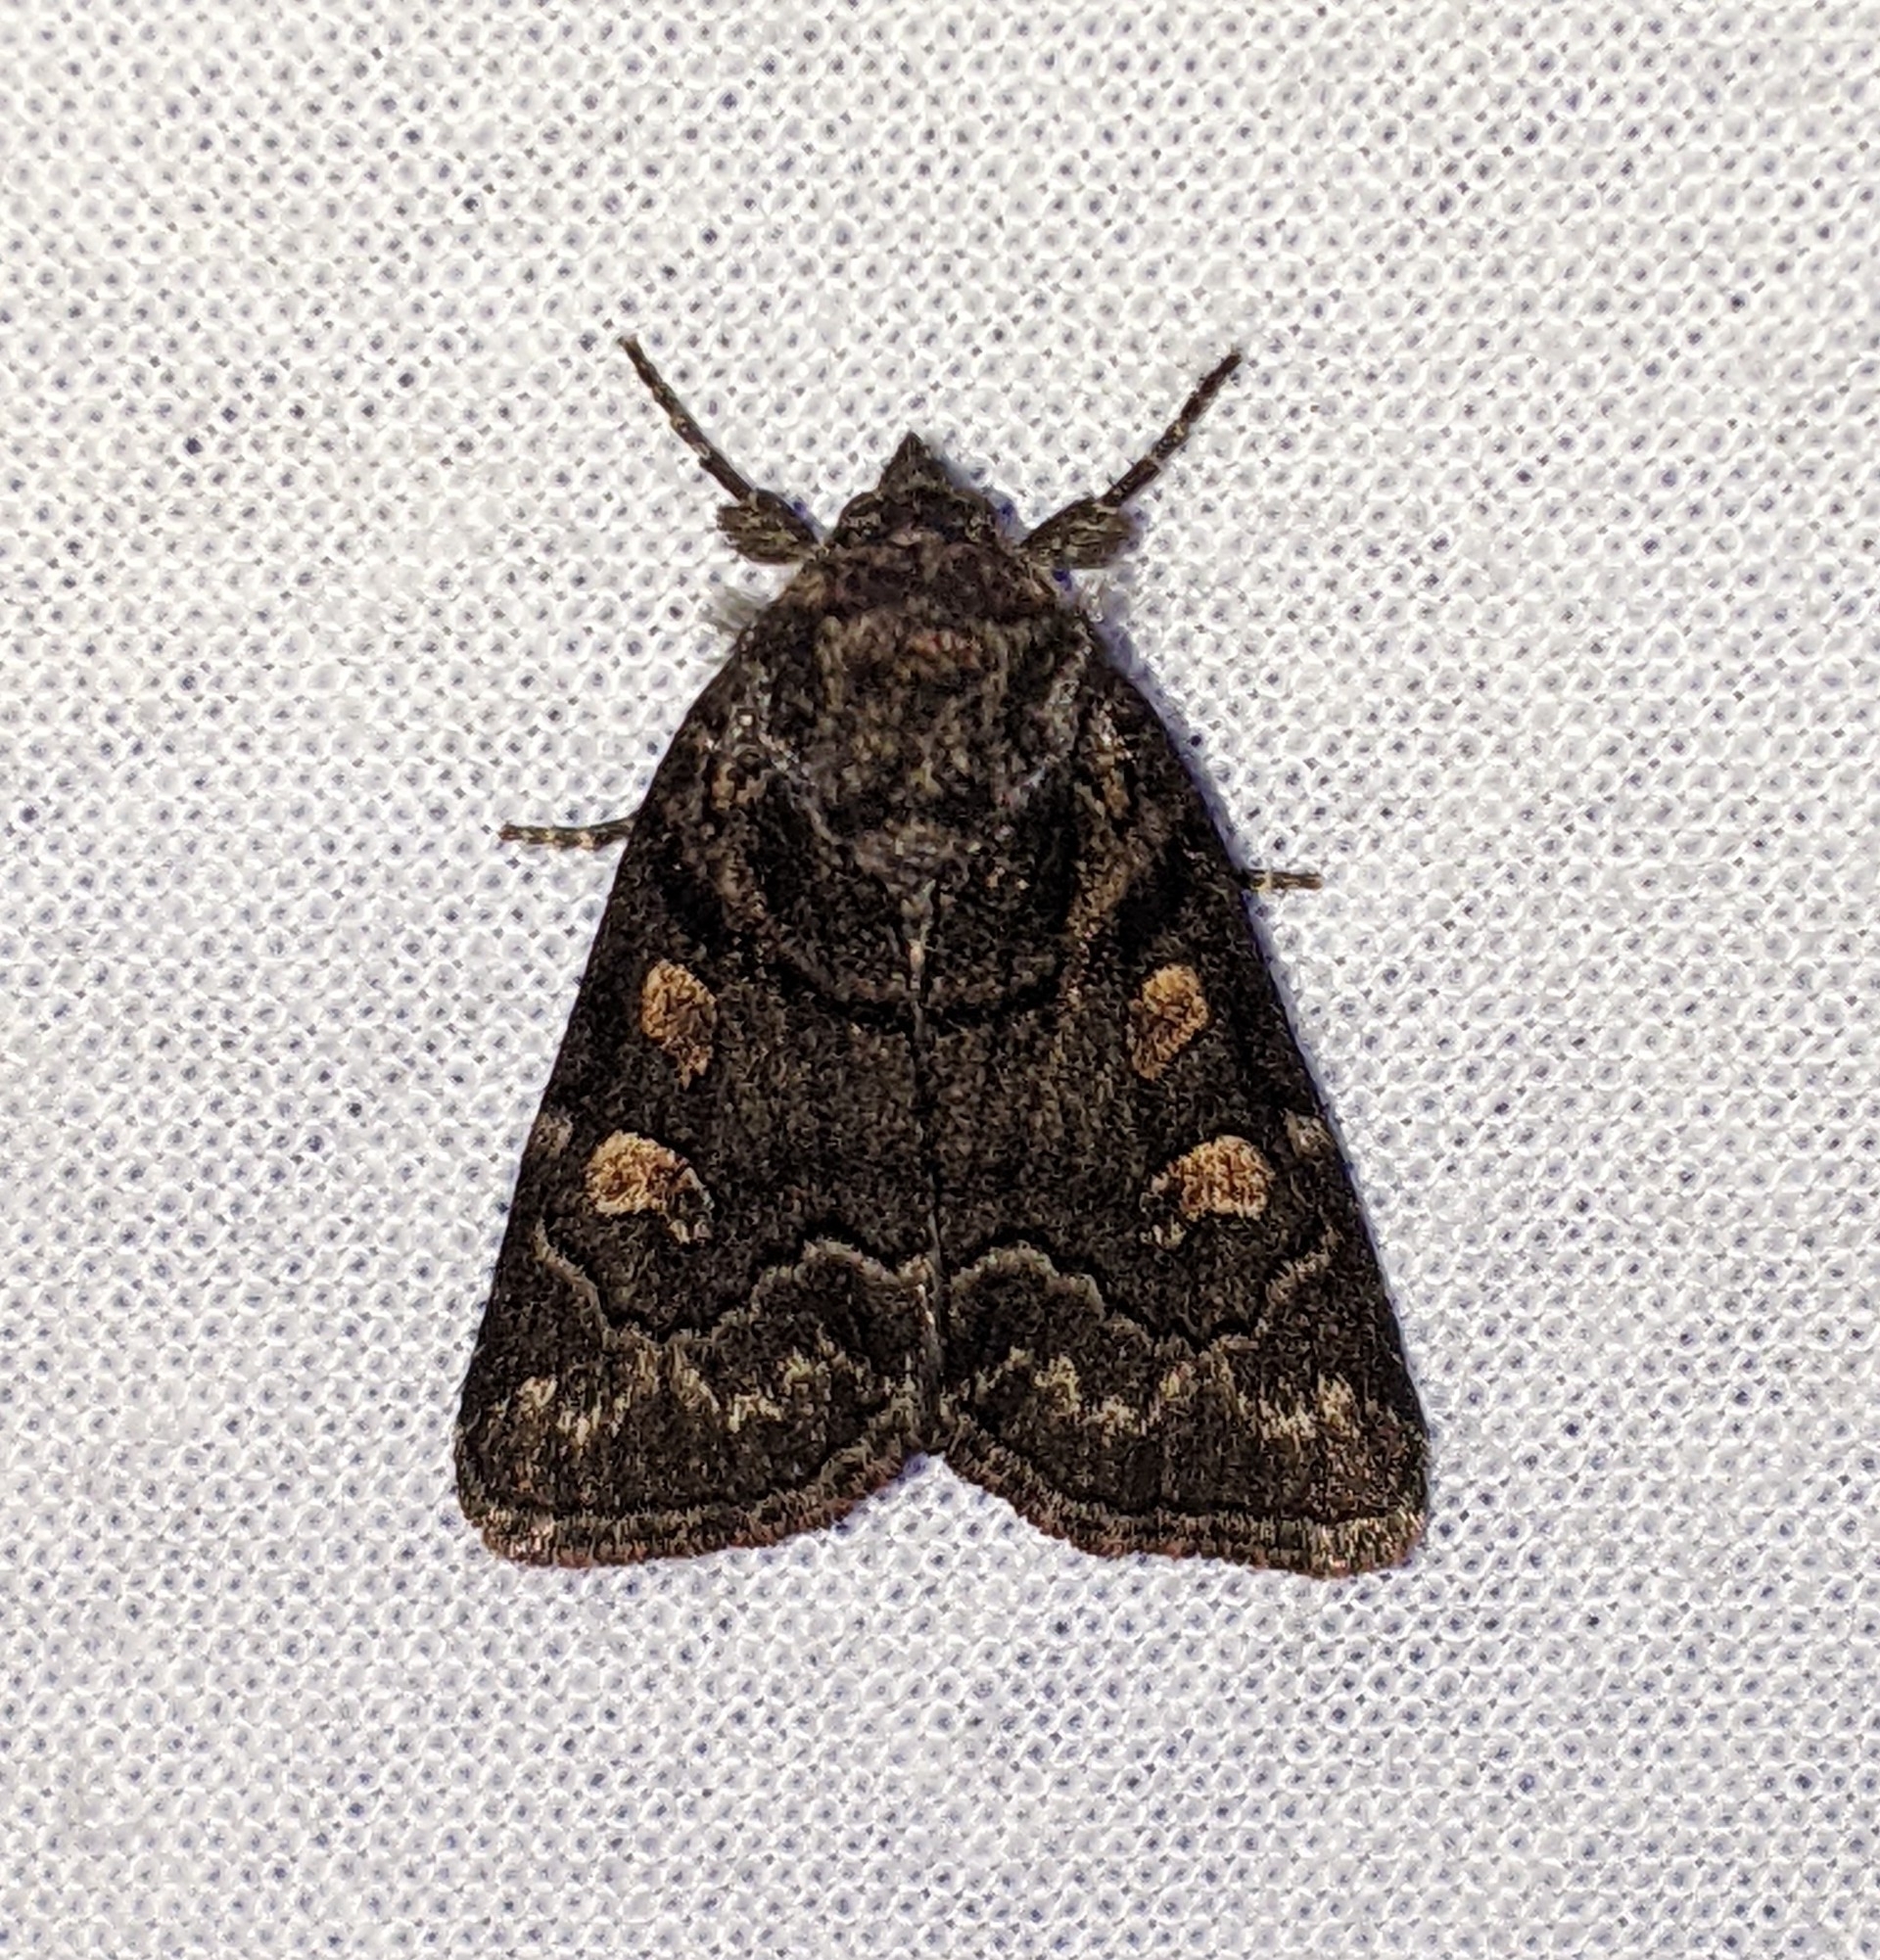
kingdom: Animalia
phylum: Arthropoda
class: Insecta
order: Lepidoptera
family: Noctuidae
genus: Cosmia
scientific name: Cosmia praeacuta
